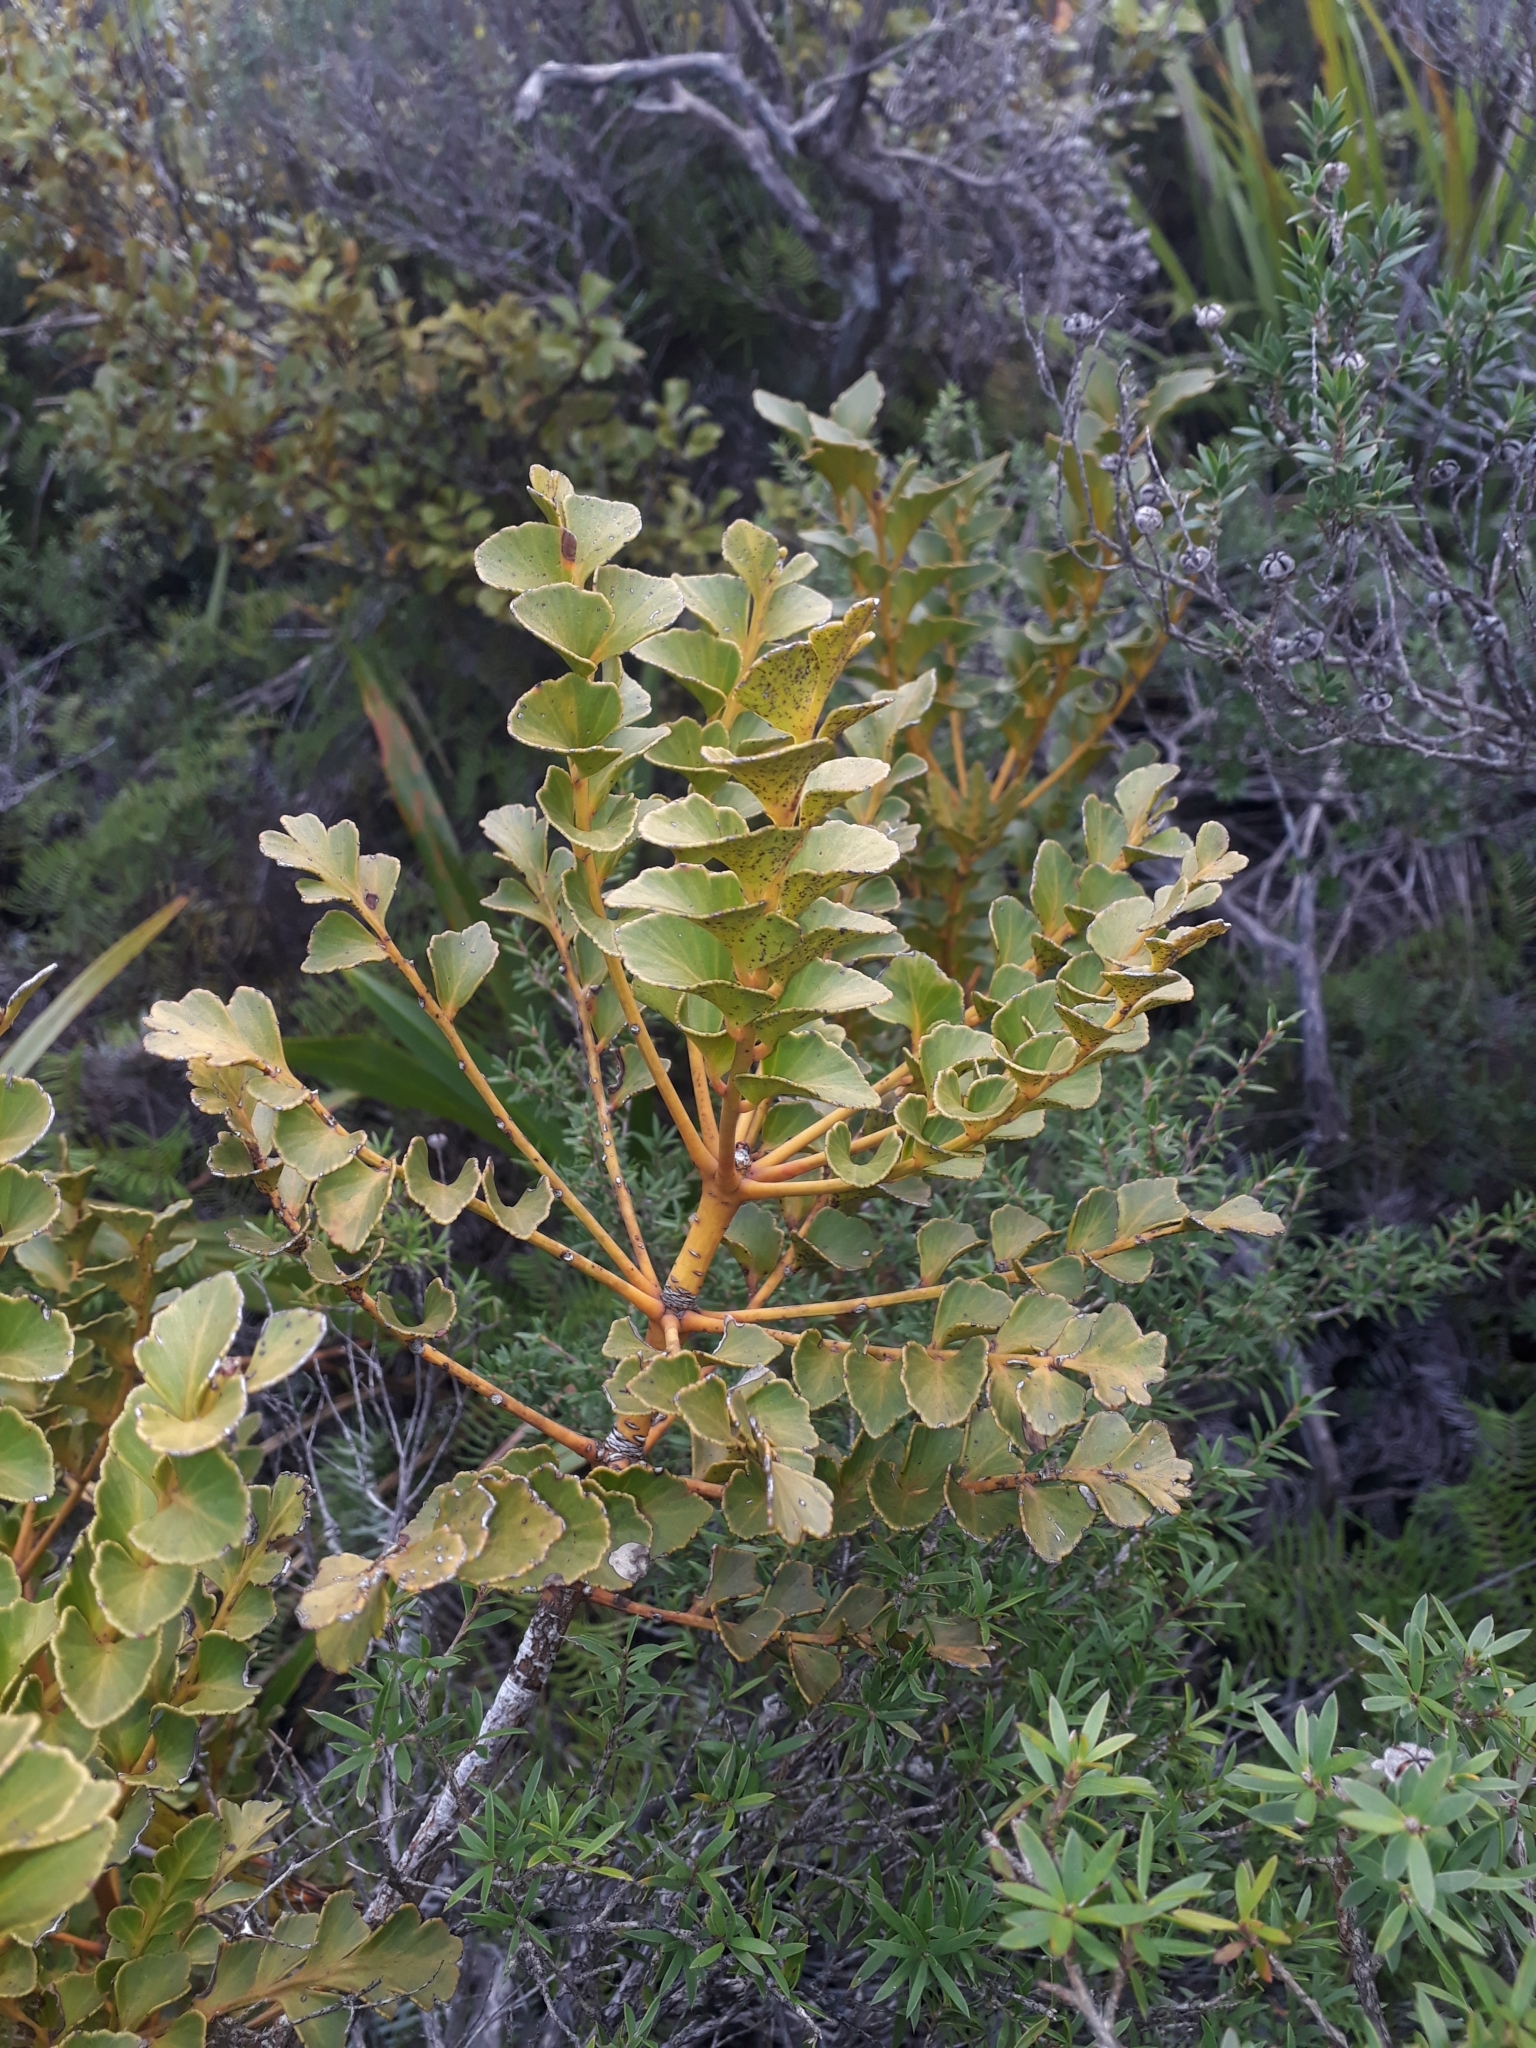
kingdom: Plantae
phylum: Tracheophyta
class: Pinopsida
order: Pinales
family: Phyllocladaceae
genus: Phyllocladus
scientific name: Phyllocladus toatoa
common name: Celery-top pine
